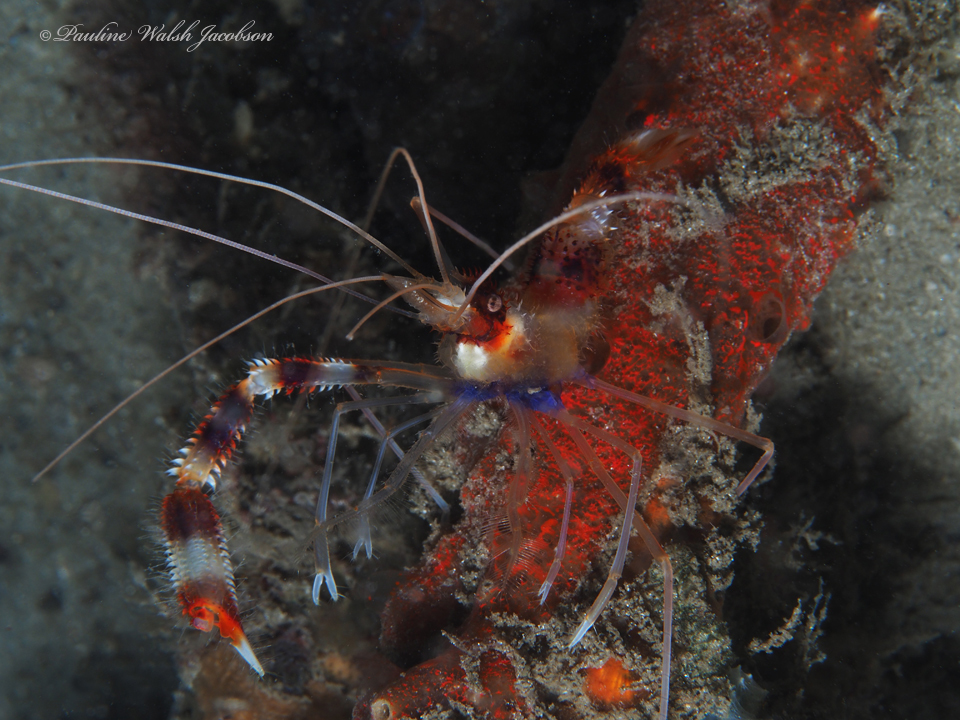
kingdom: Animalia
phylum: Arthropoda
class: Malacostraca
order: Decapoda
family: Stenopodidae
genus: Stenopus
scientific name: Stenopus hispidus
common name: Banded coral shrimp
